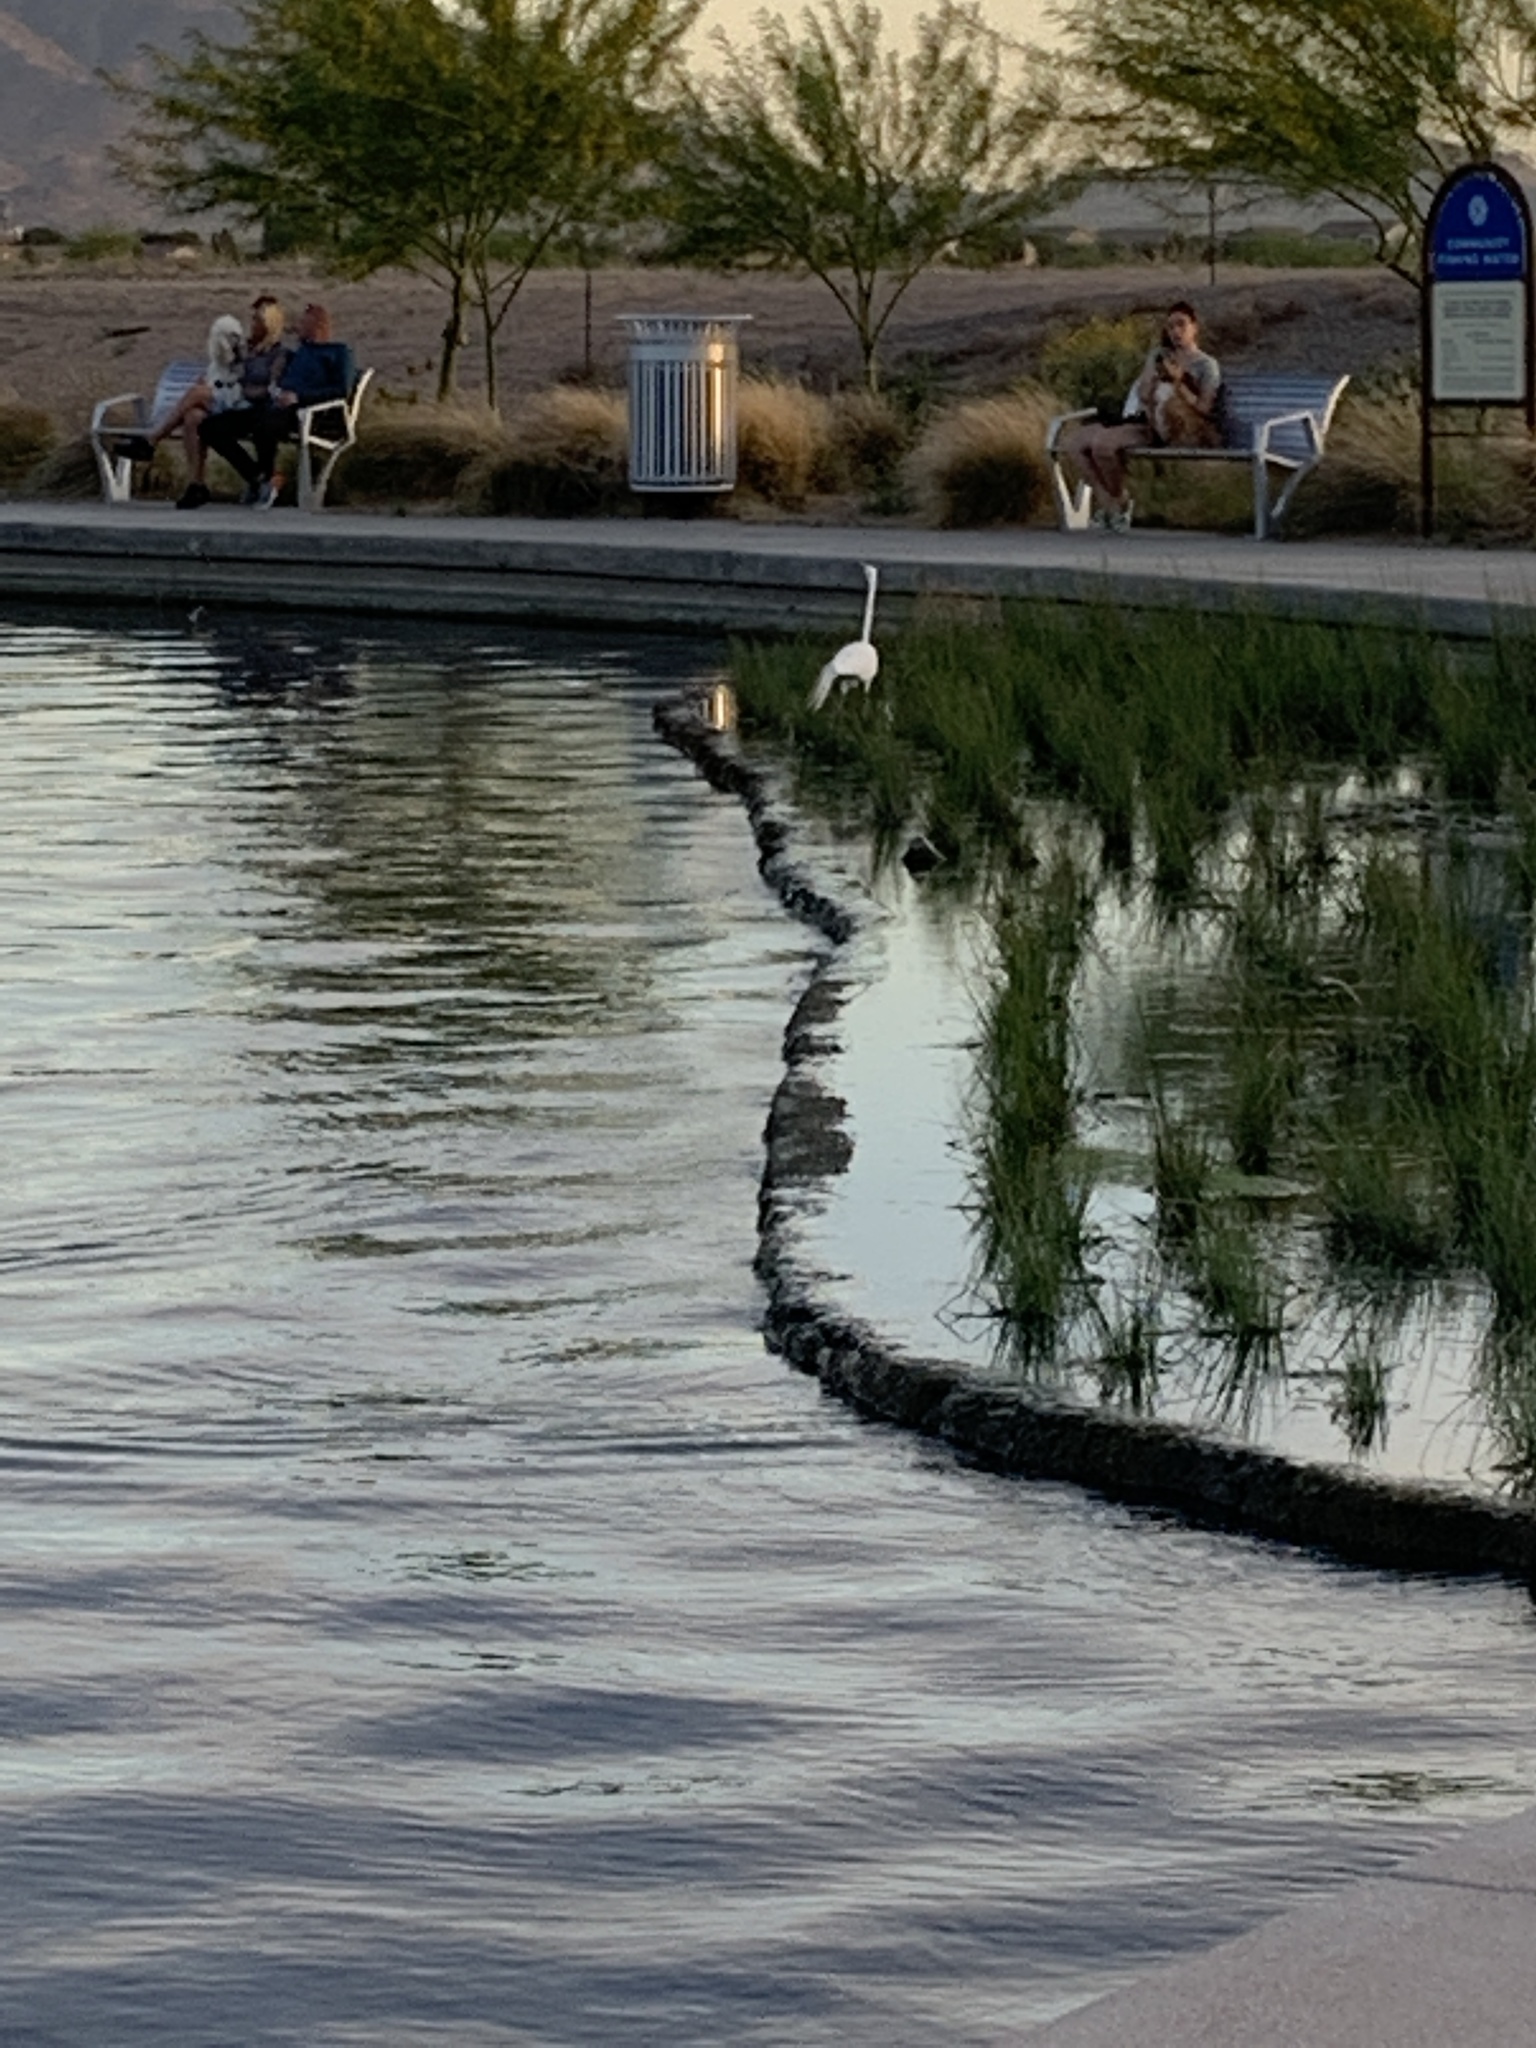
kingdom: Animalia
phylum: Chordata
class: Aves
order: Pelecaniformes
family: Ardeidae
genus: Ardea
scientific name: Ardea alba
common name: Great egret
